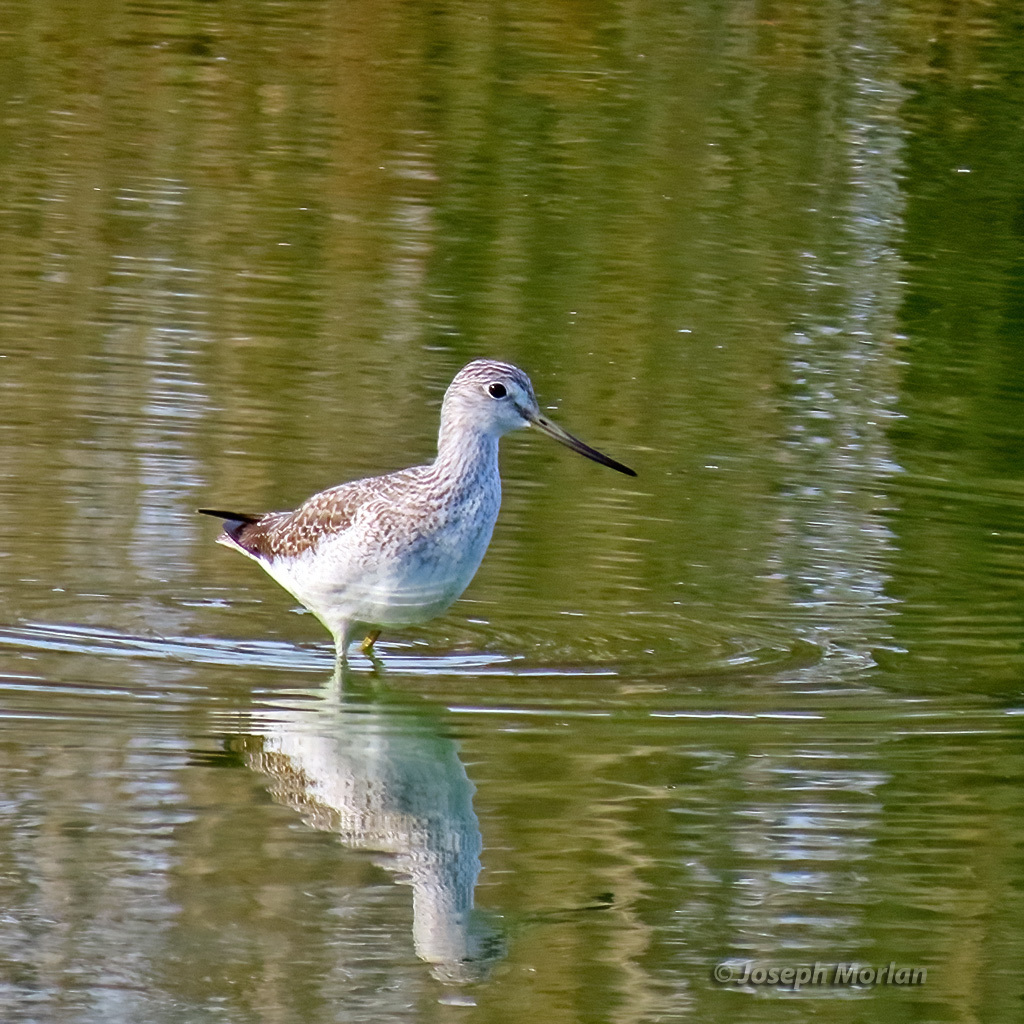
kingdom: Animalia
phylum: Chordata
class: Aves
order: Charadriiformes
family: Scolopacidae
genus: Tringa
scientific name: Tringa melanoleuca
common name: Greater yellowlegs
